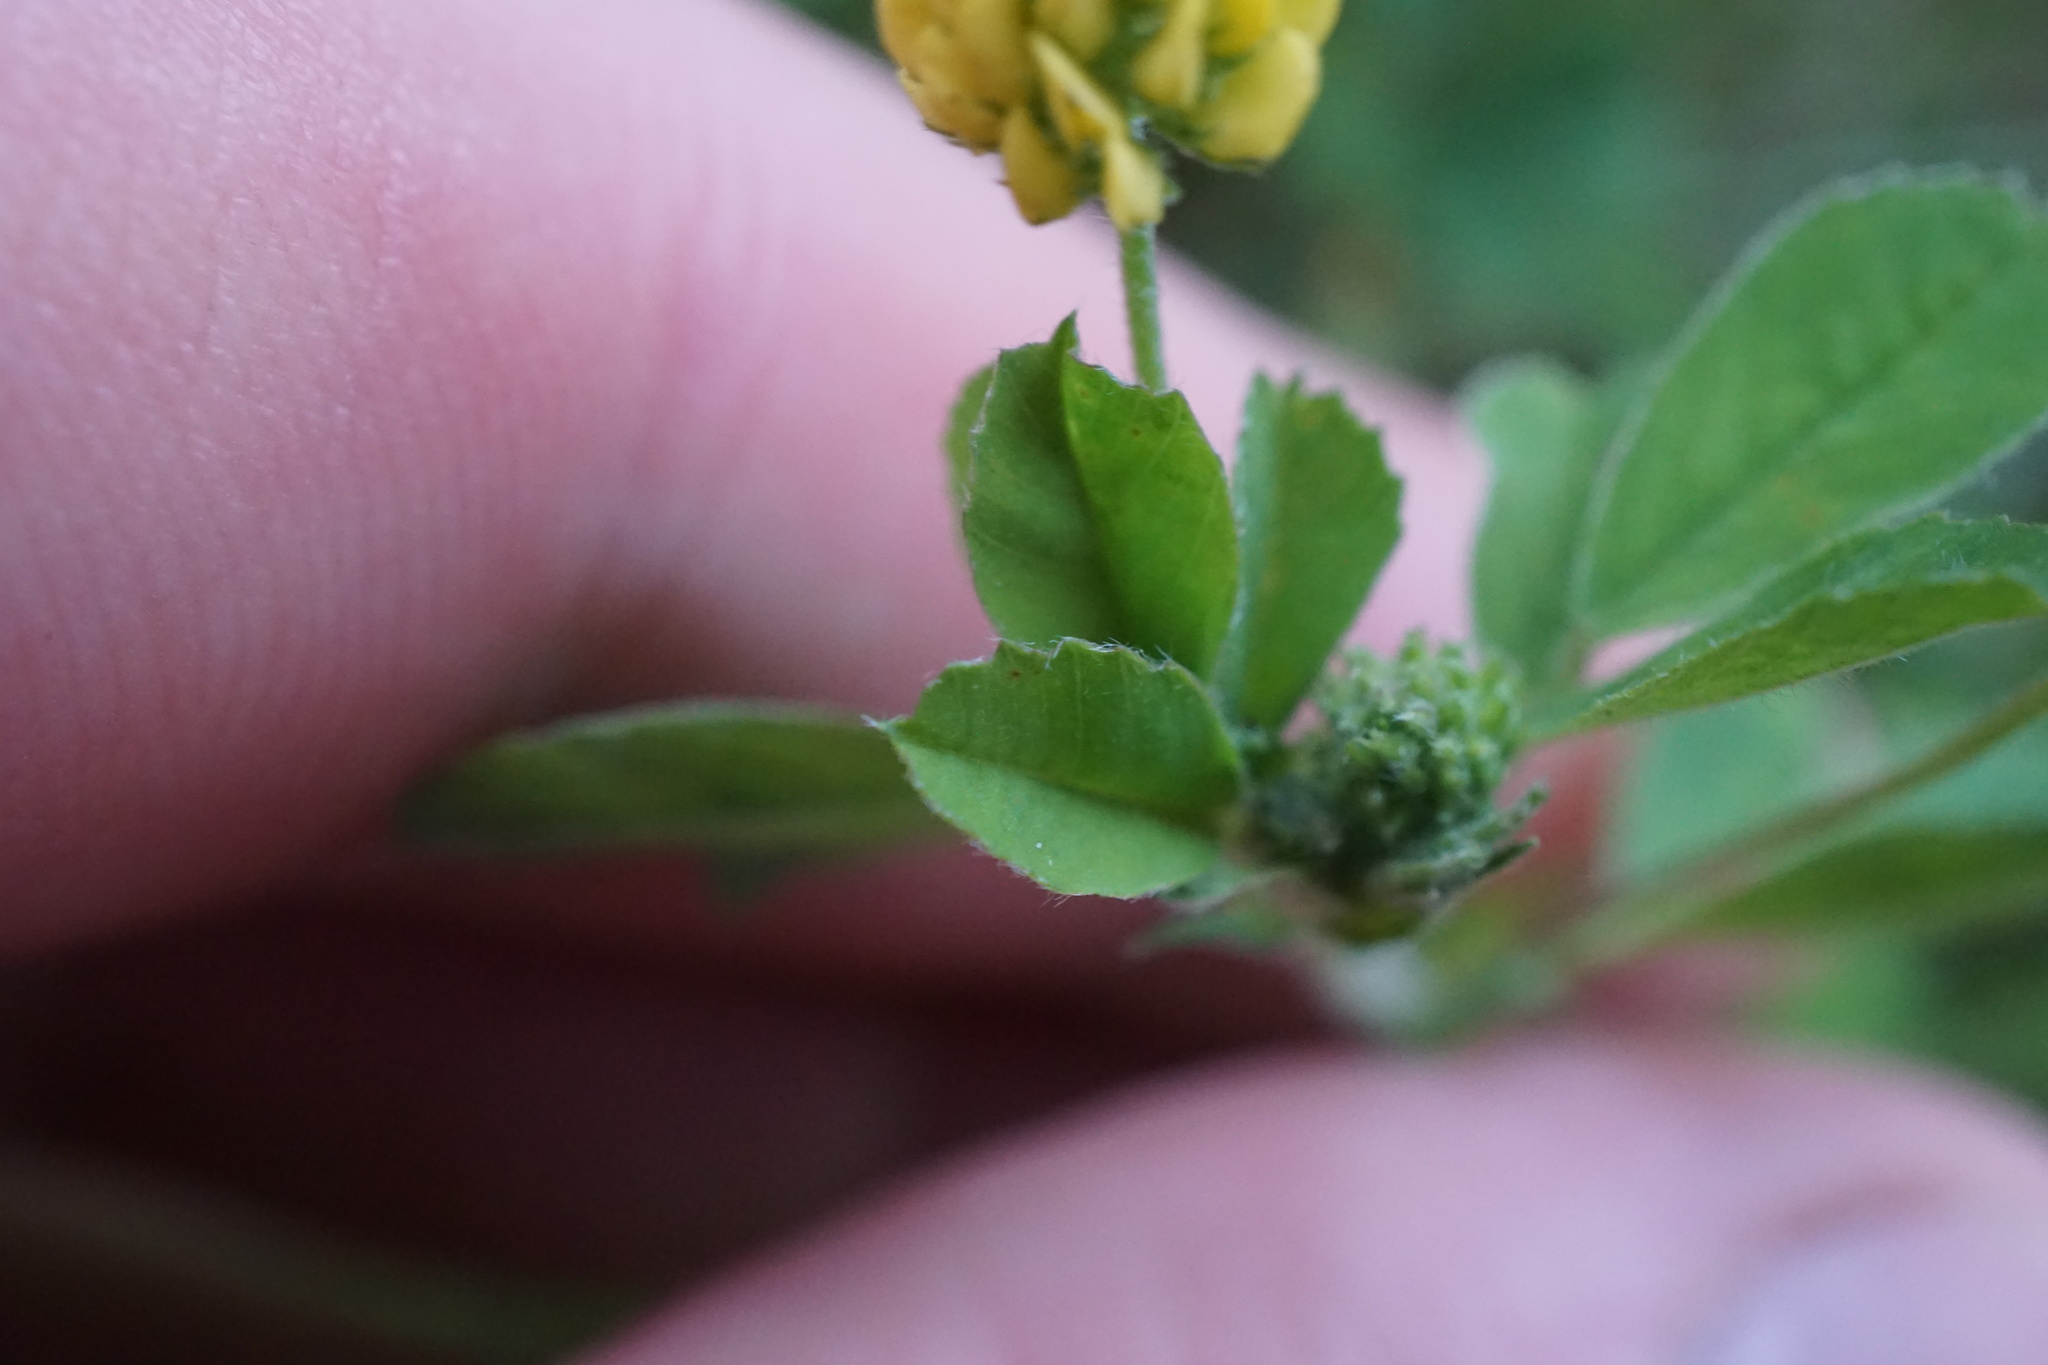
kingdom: Plantae
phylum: Tracheophyta
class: Magnoliopsida
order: Fabales
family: Fabaceae
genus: Medicago
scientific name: Medicago lupulina
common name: Black medick
